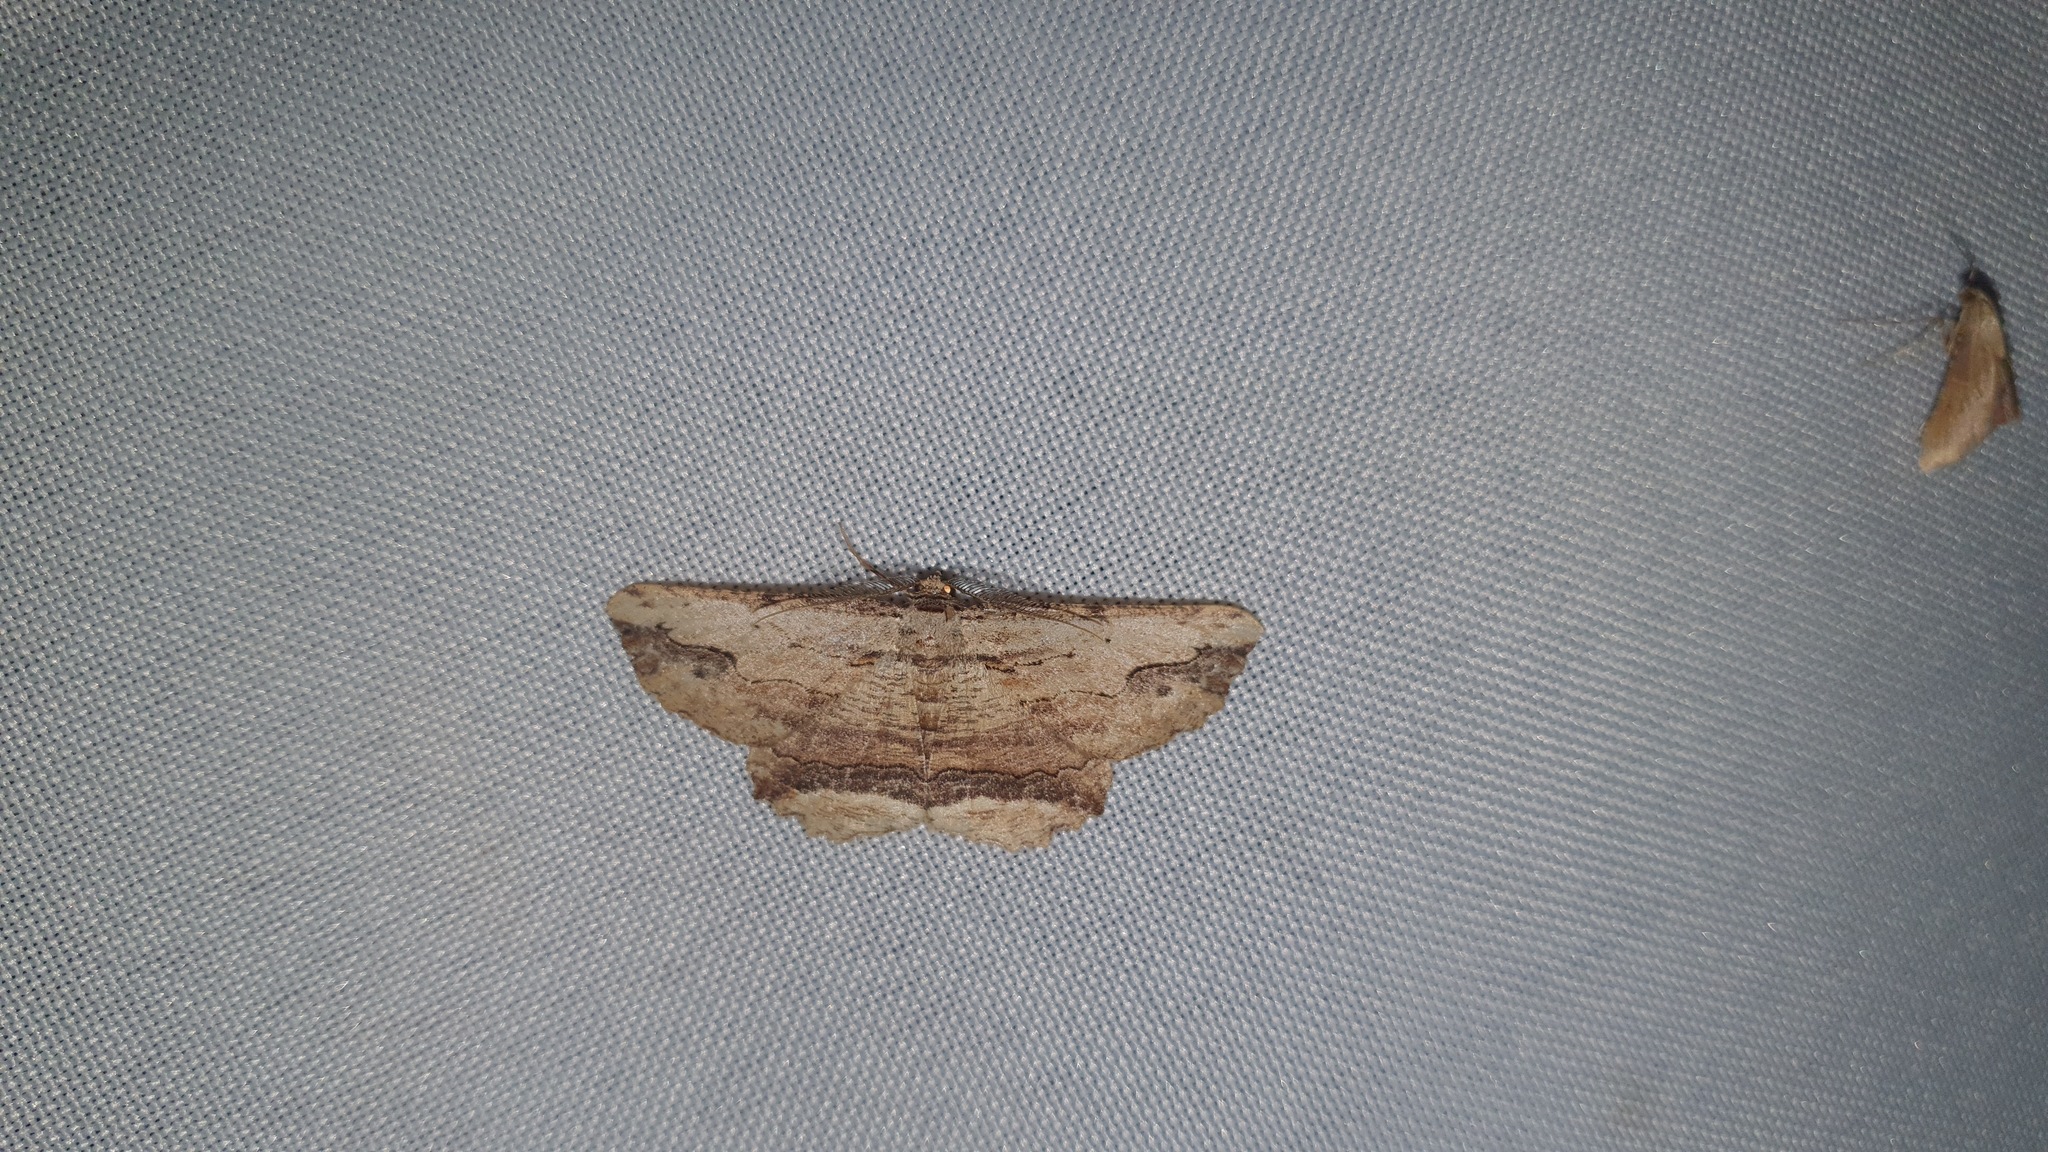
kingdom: Animalia
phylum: Arthropoda
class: Insecta
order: Lepidoptera
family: Geometridae
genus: Menophra
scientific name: Menophra abruptaria
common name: Waved umber
